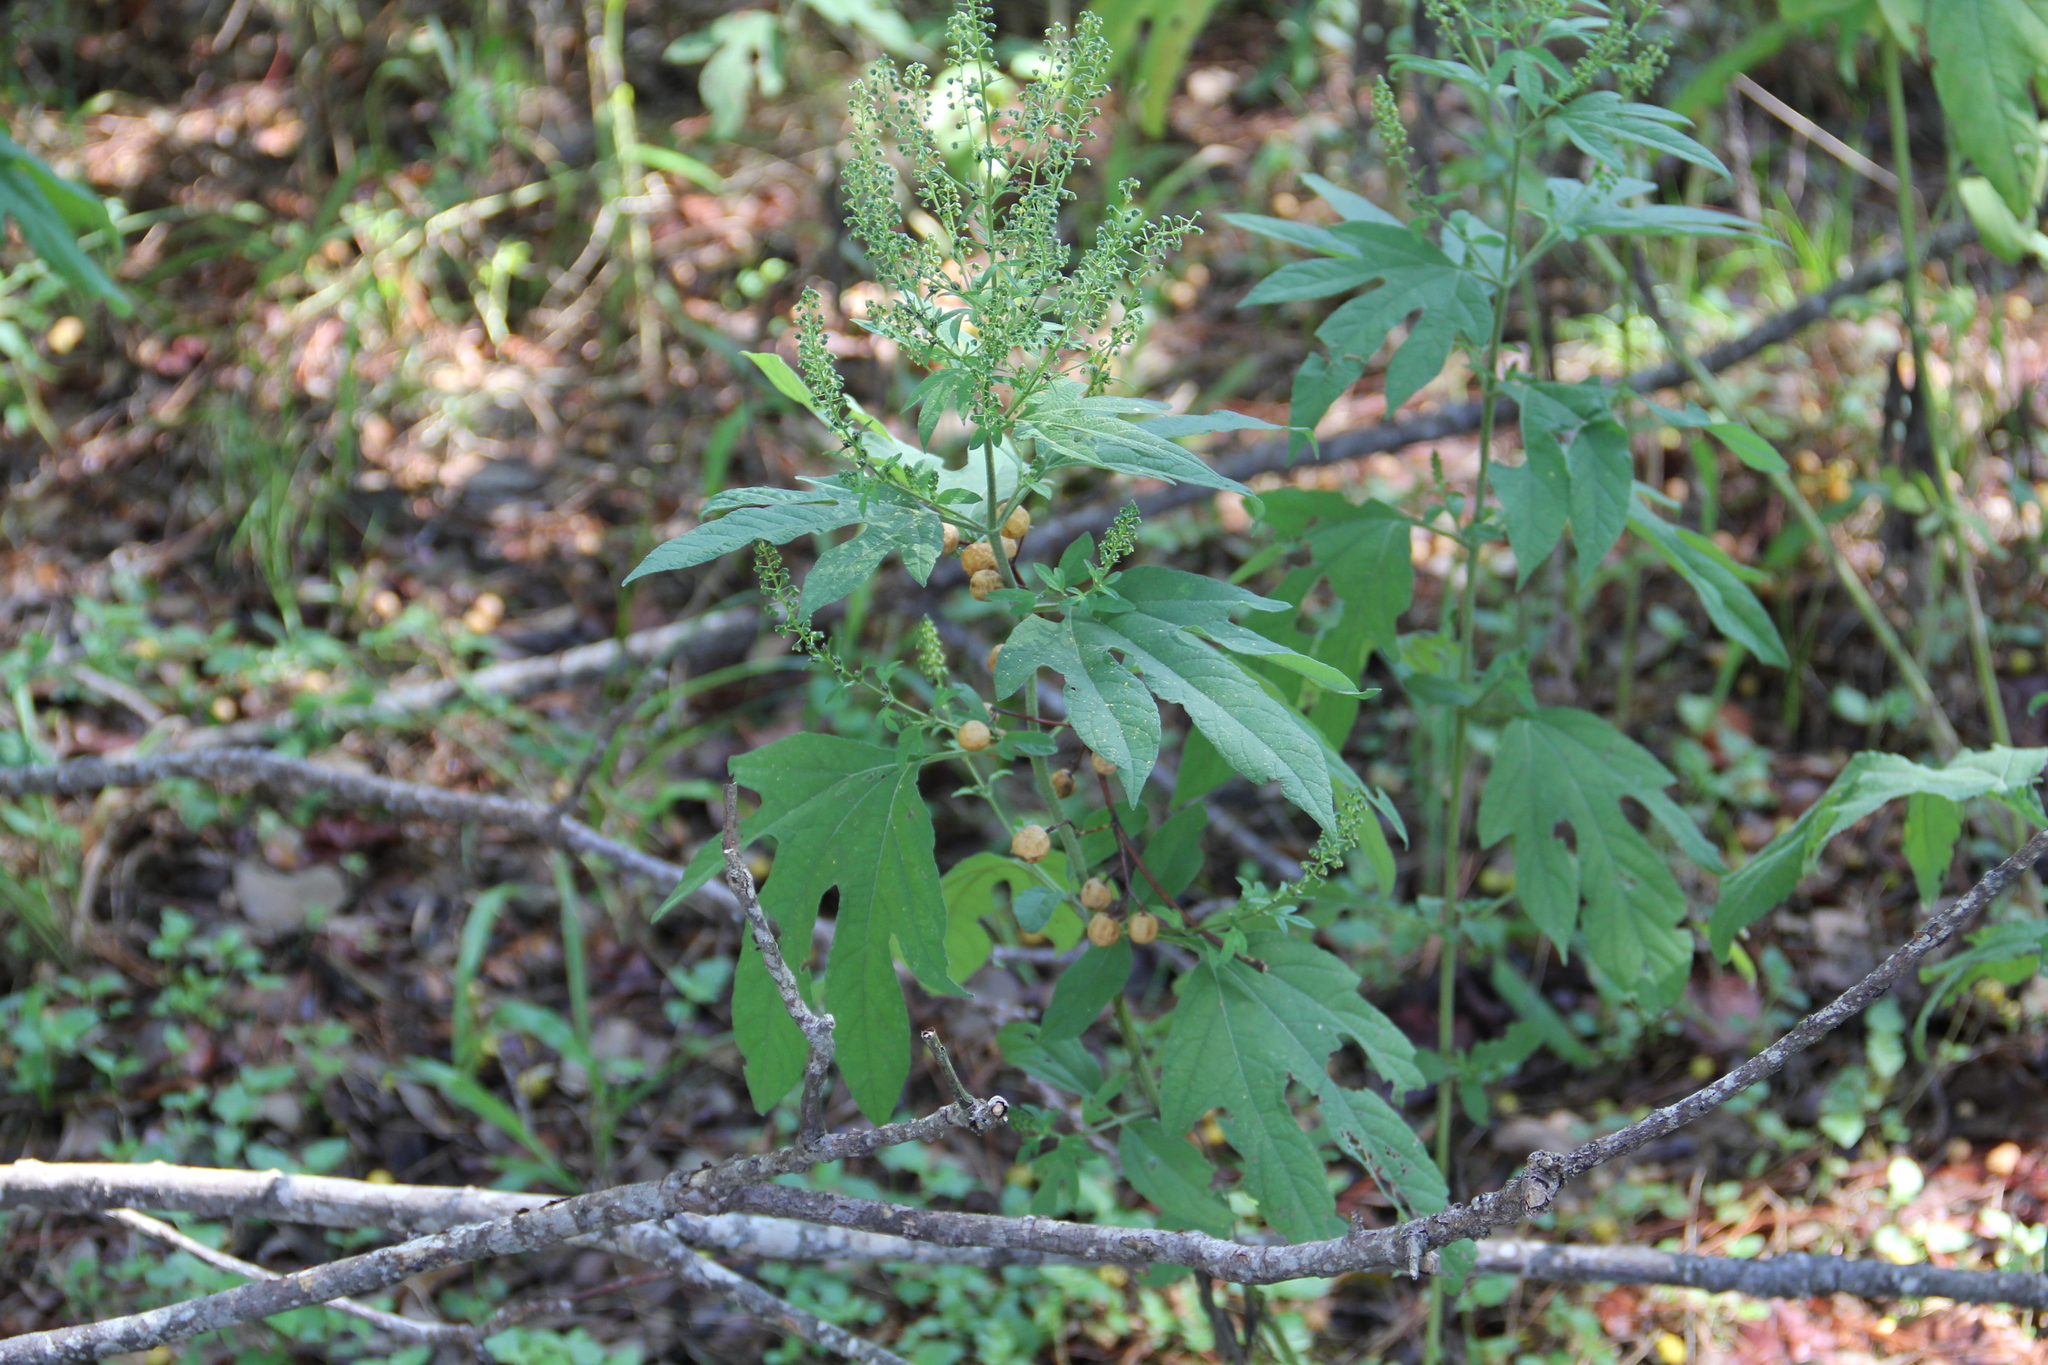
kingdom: Plantae
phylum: Tracheophyta
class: Magnoliopsida
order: Asterales
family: Asteraceae
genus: Ambrosia
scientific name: Ambrosia trifida
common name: Giant ragweed
